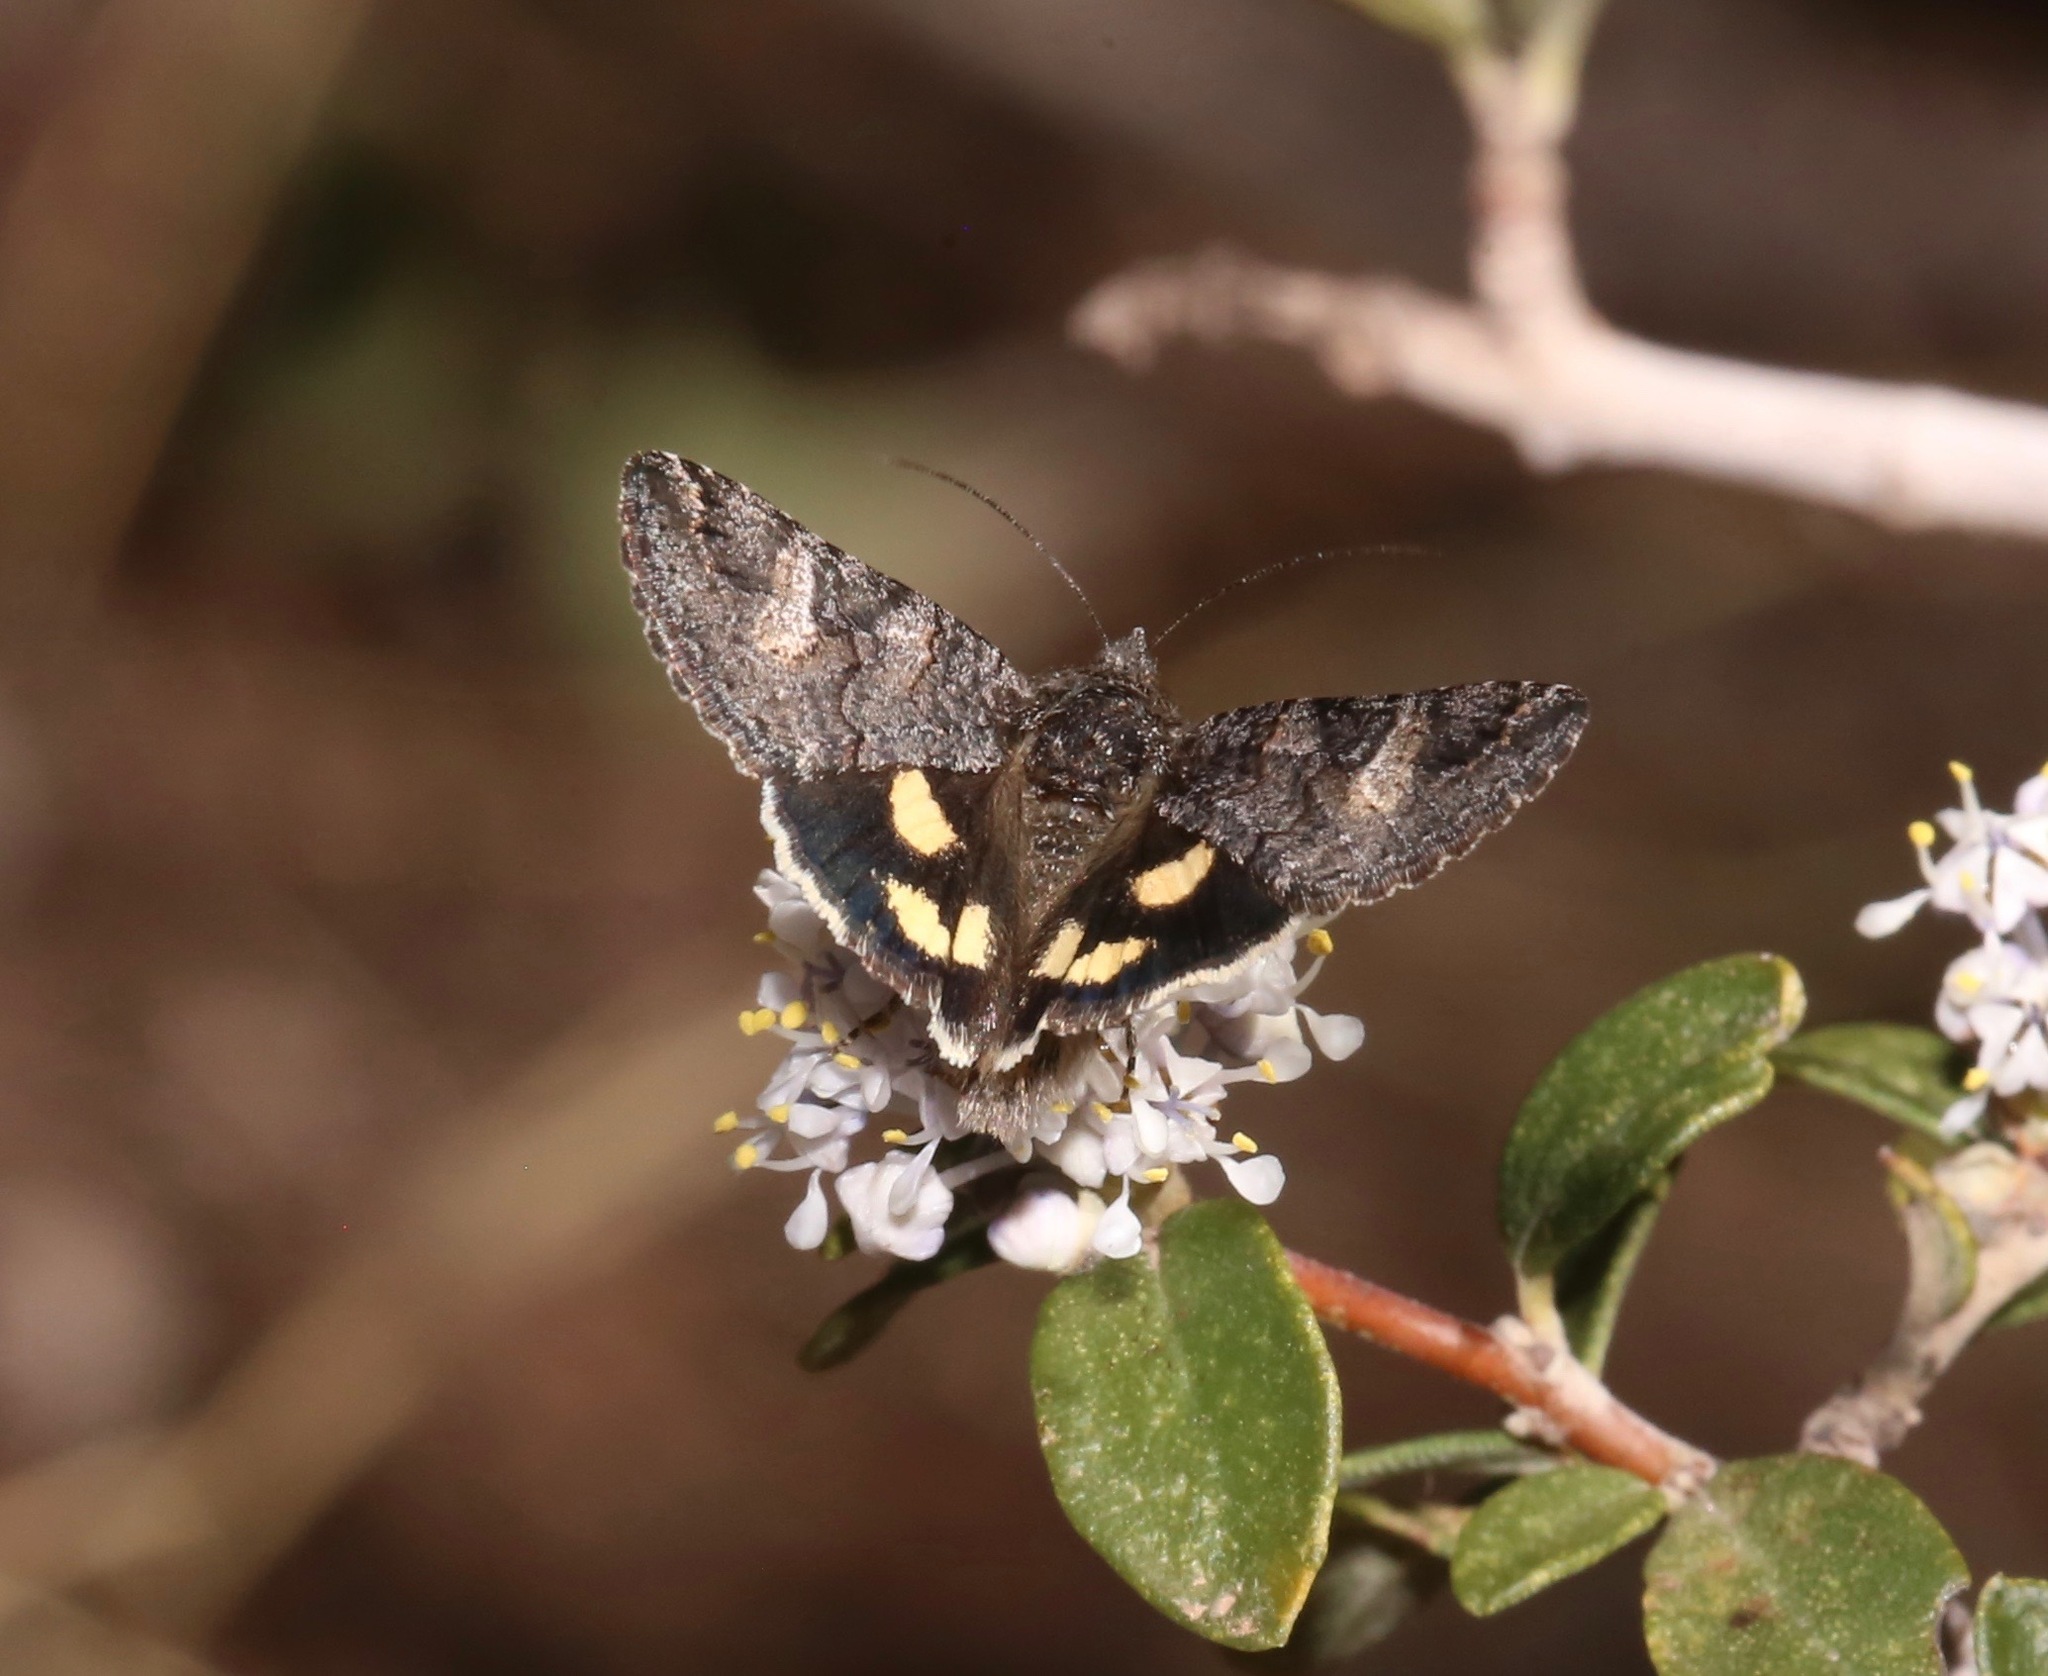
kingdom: Animalia
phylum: Arthropoda
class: Insecta
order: Lepidoptera
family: Erebidae
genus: Litocala
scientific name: Litocala sexsignata
